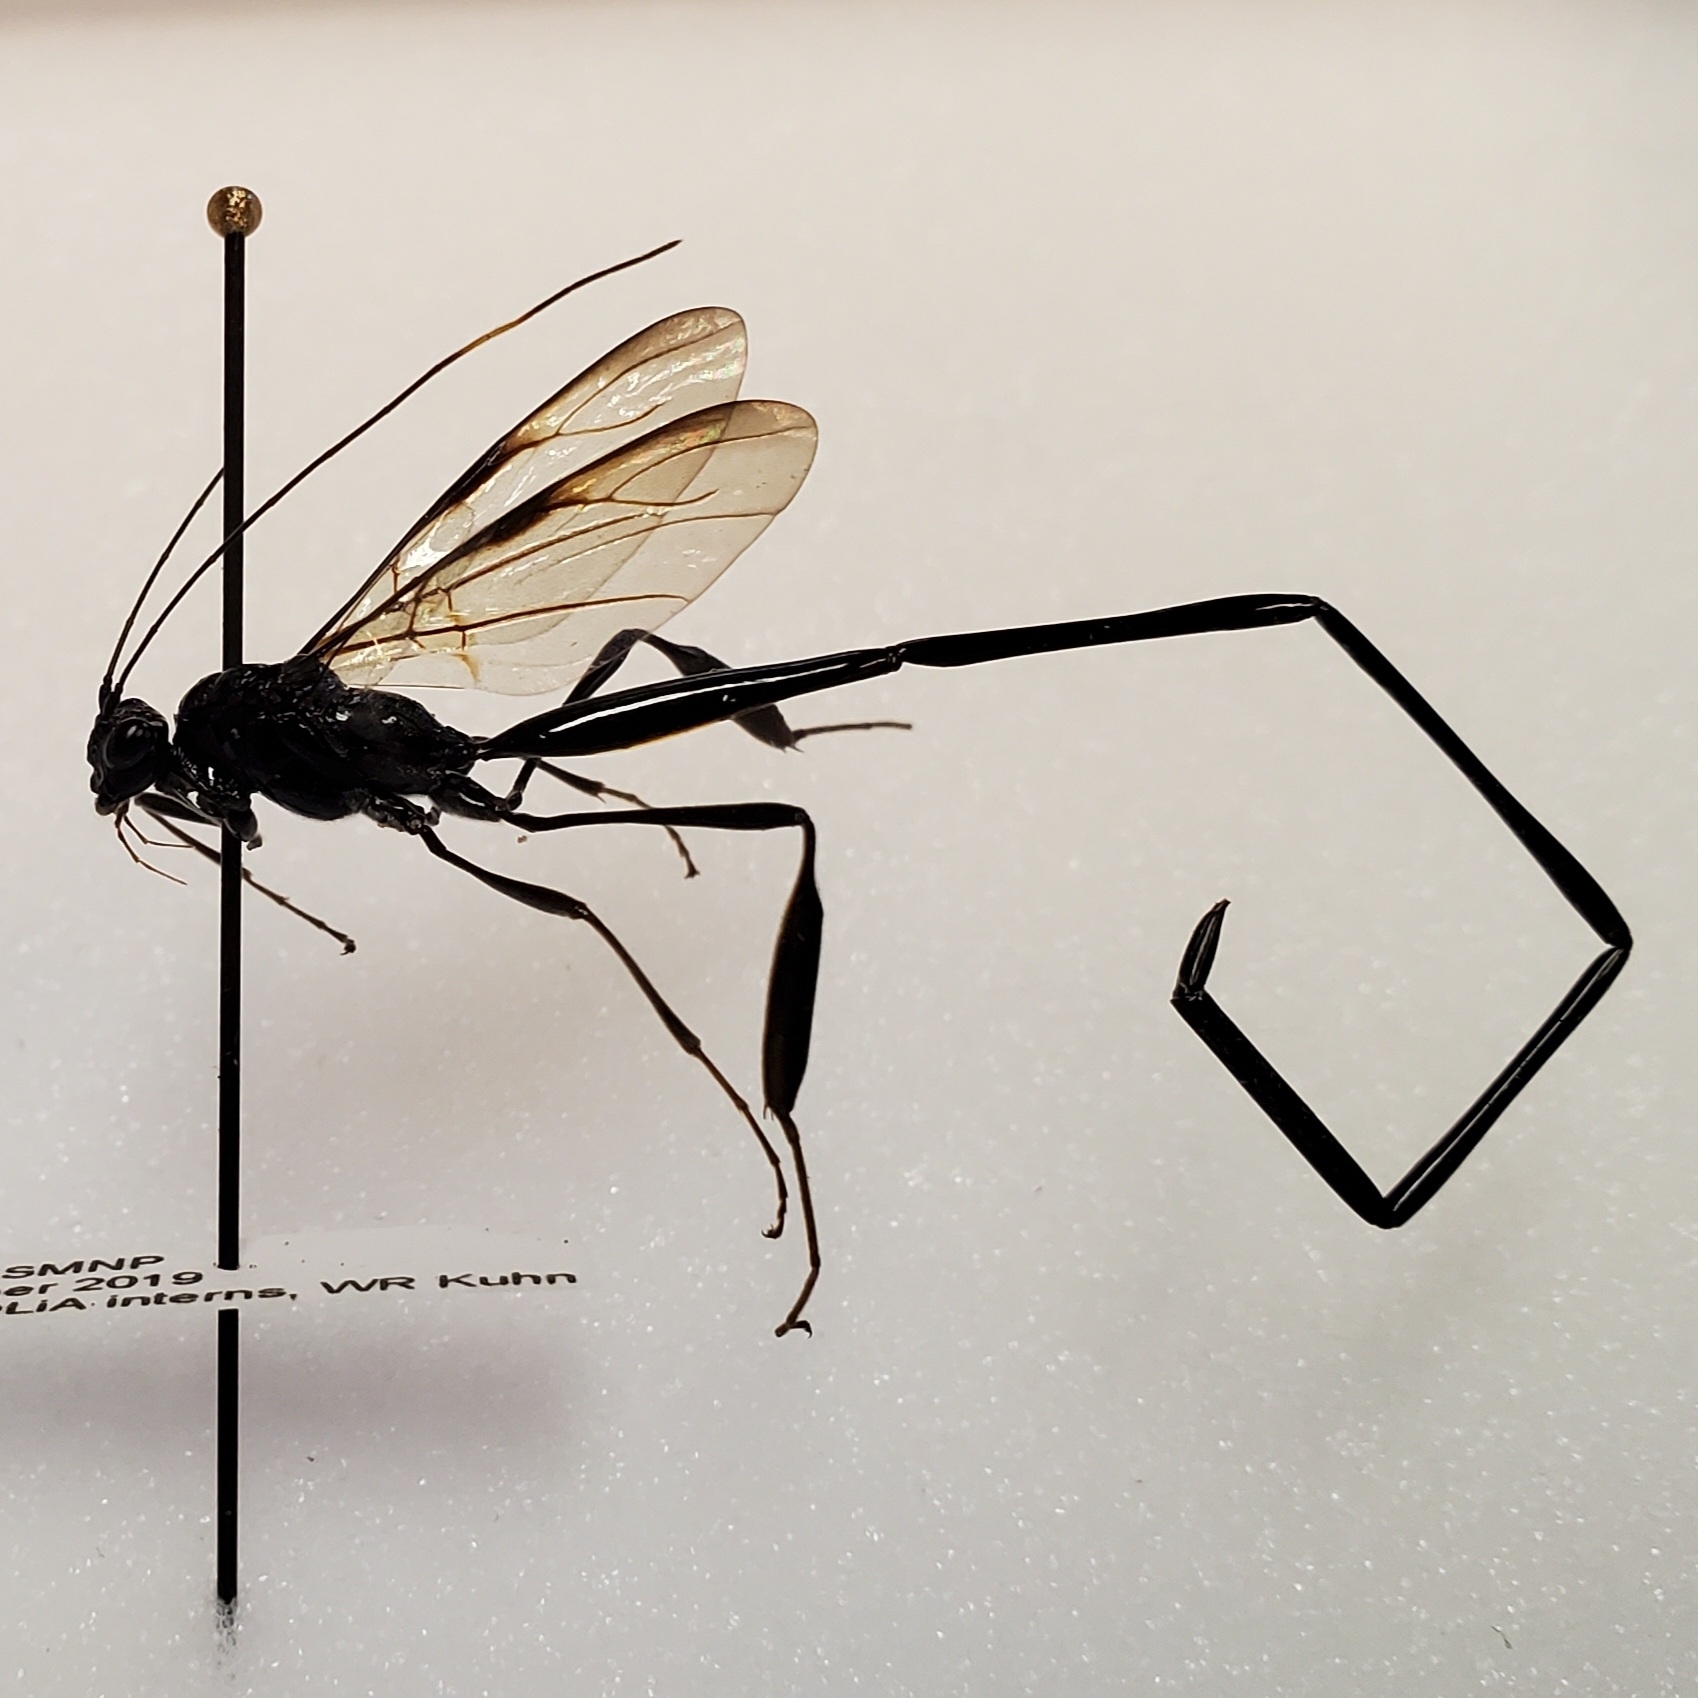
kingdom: Animalia
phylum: Arthropoda
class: Insecta
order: Hymenoptera
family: Pelecinidae
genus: Pelecinus
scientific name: Pelecinus polyturator
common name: American pelecinid wasp
